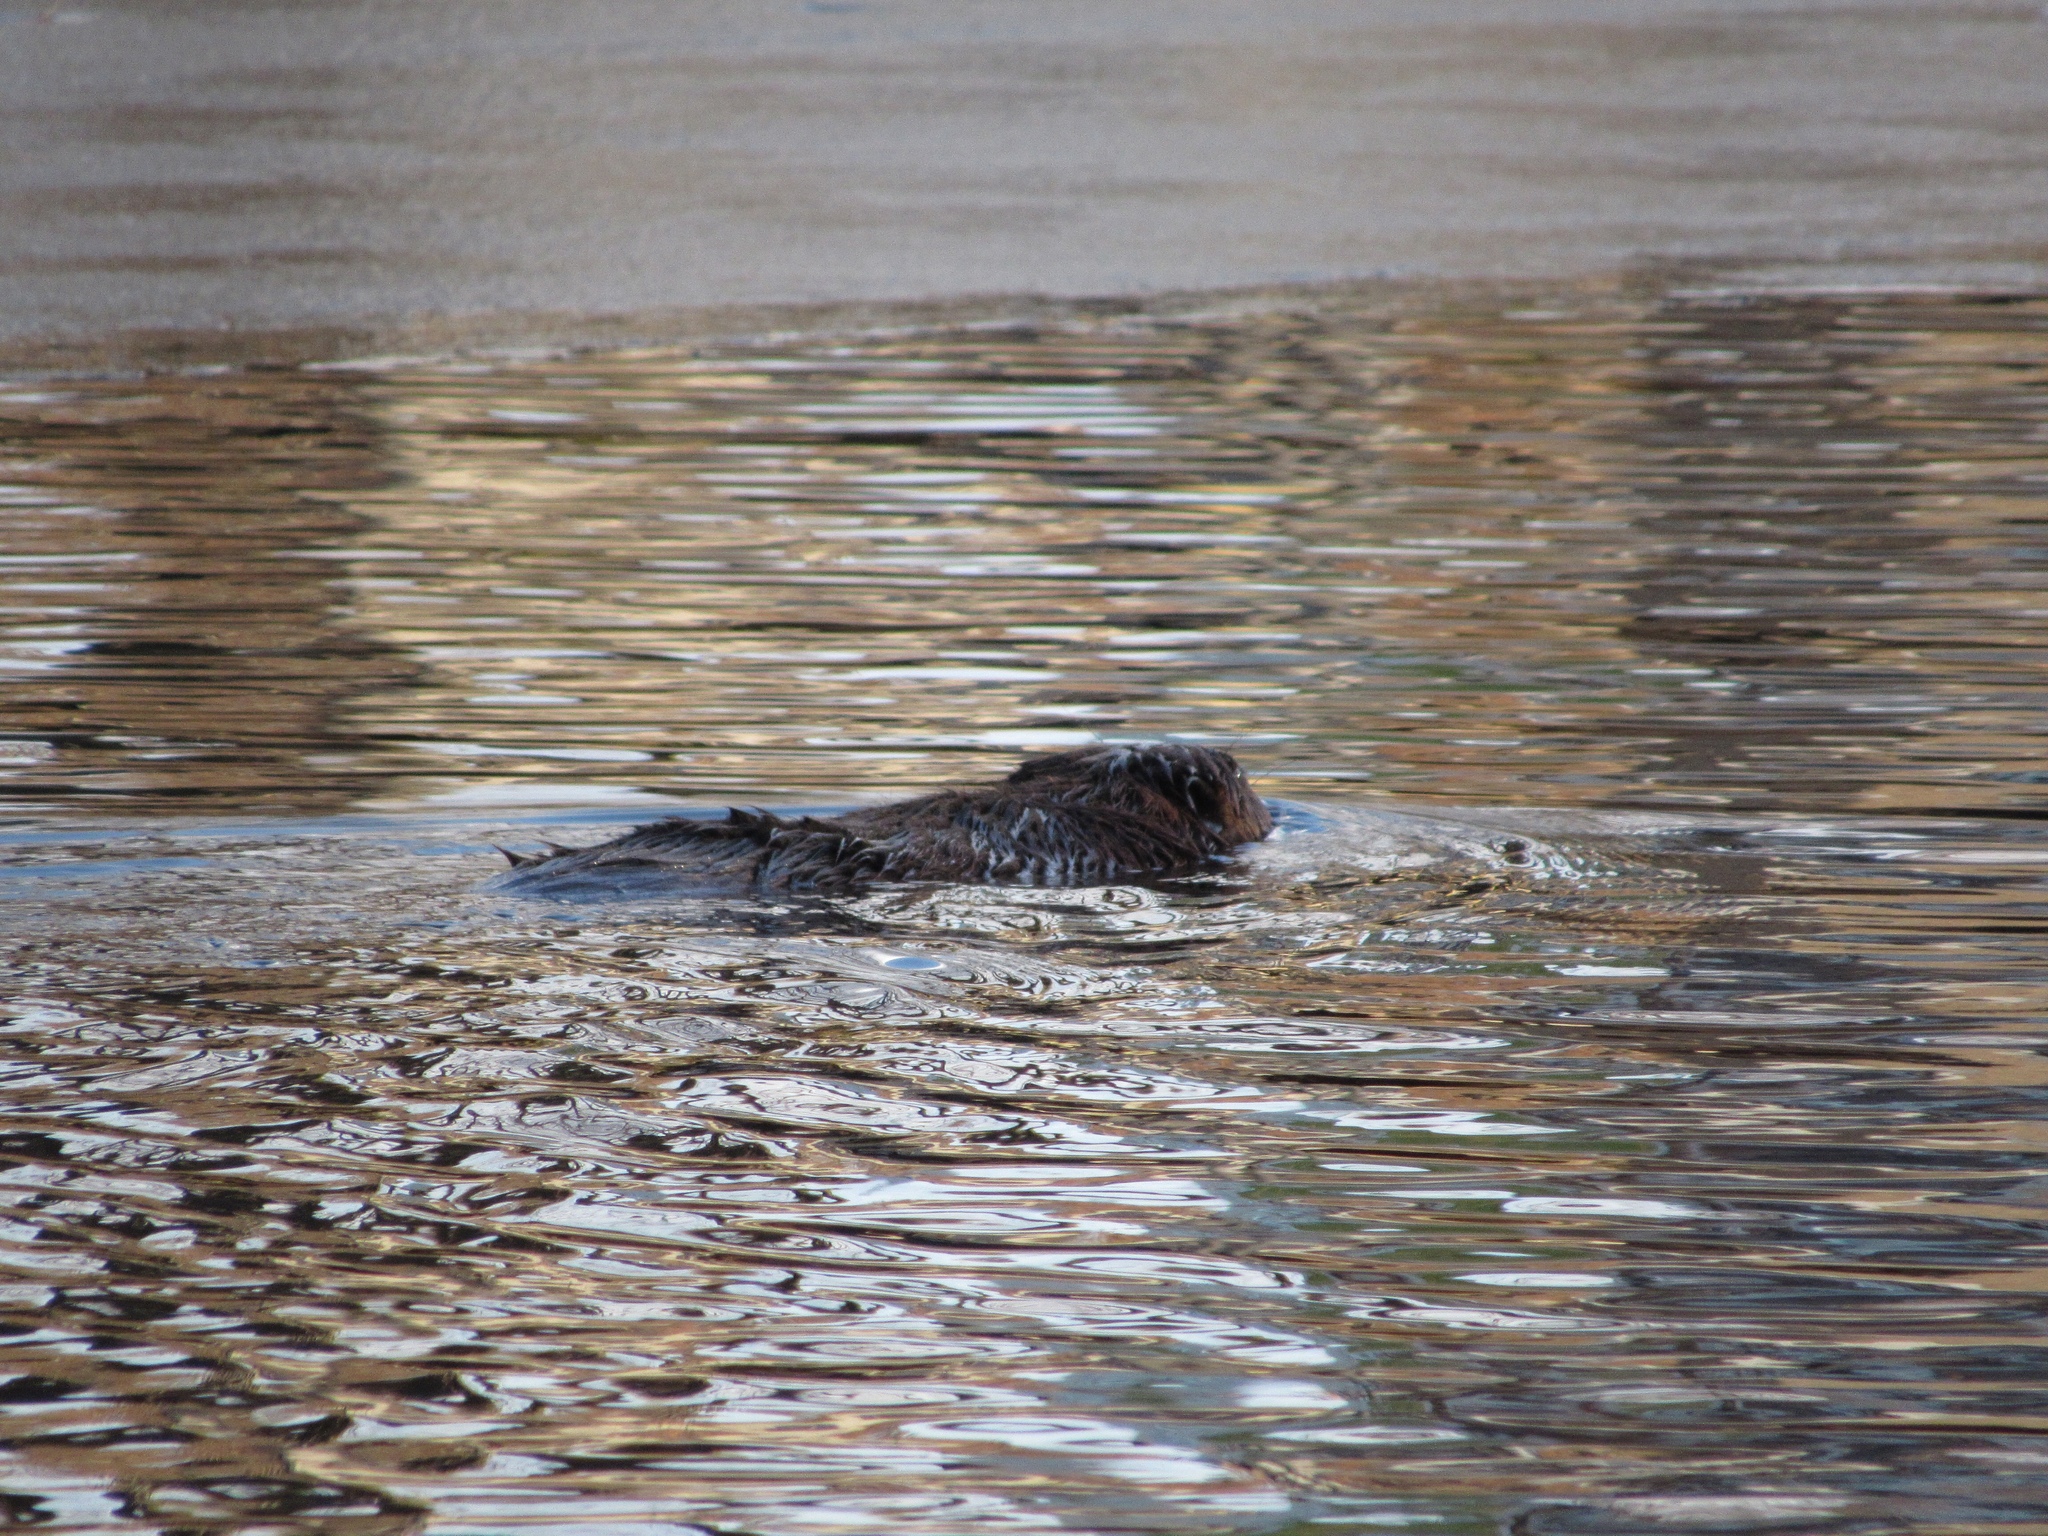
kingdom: Animalia
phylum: Chordata
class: Mammalia
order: Rodentia
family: Castoridae
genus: Castor
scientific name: Castor canadensis
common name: American beaver
